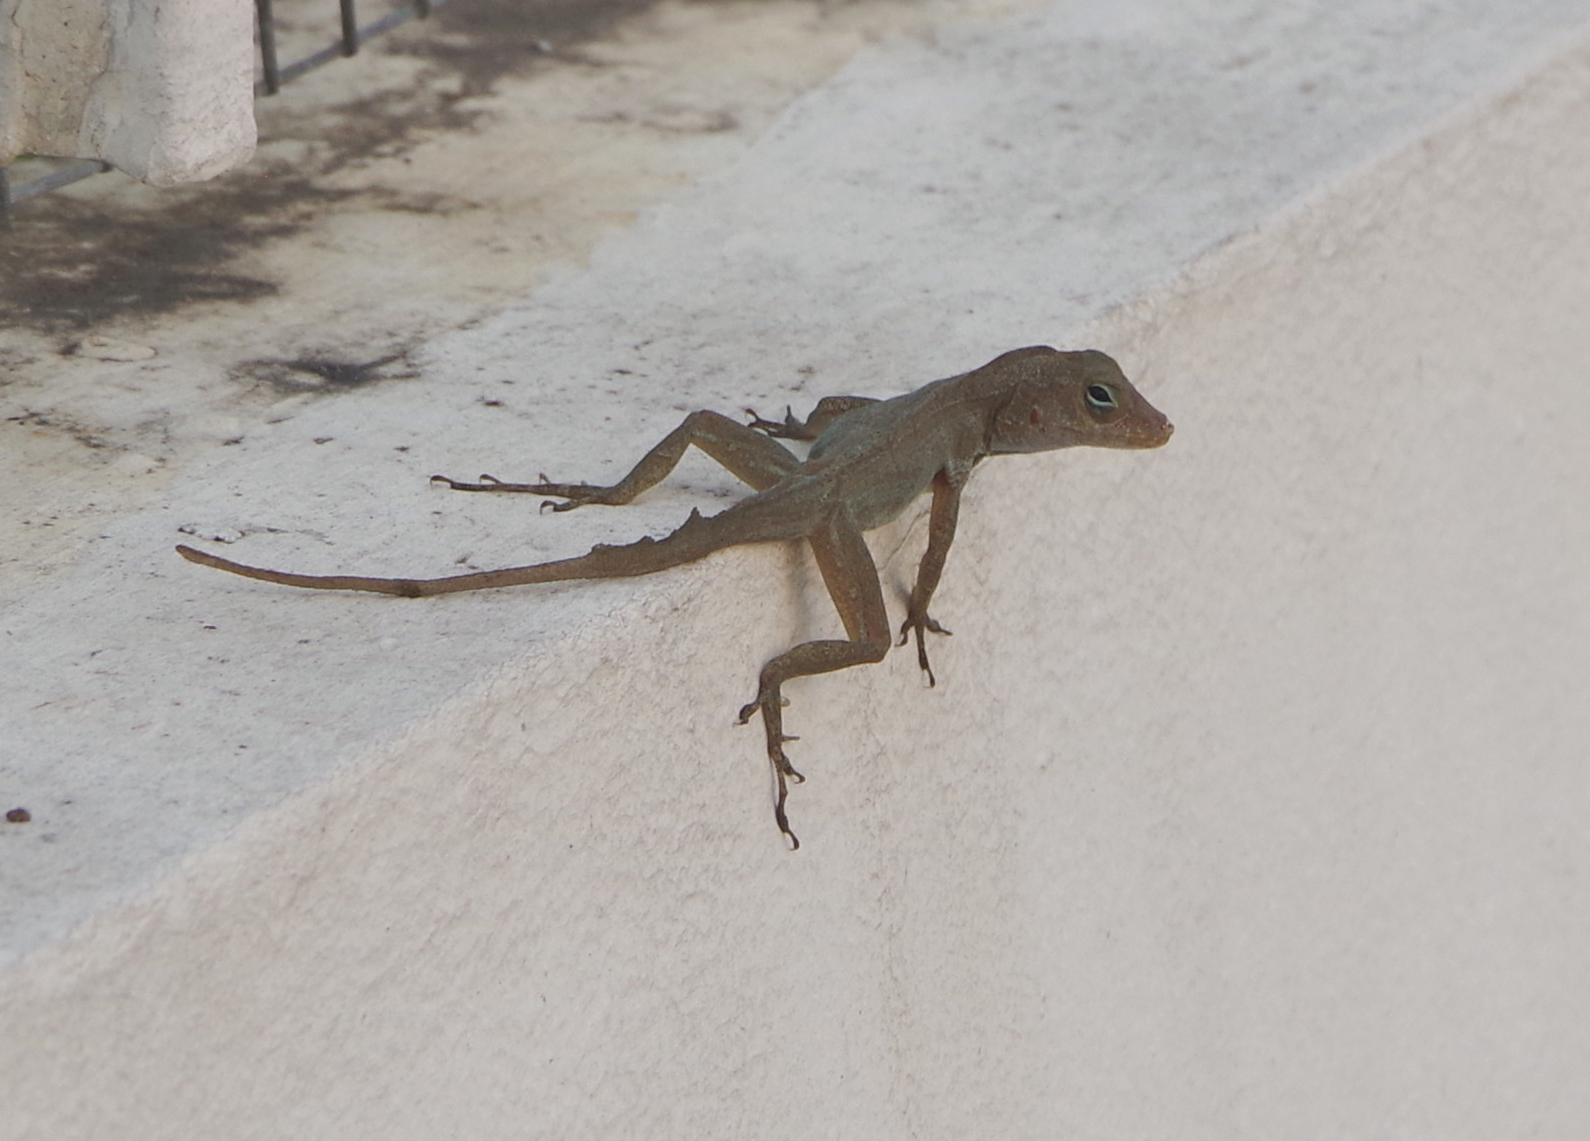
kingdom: Animalia
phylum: Chordata
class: Squamata
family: Dactyloidae
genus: Anolis
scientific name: Anolis cristatellus
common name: Crested anole
